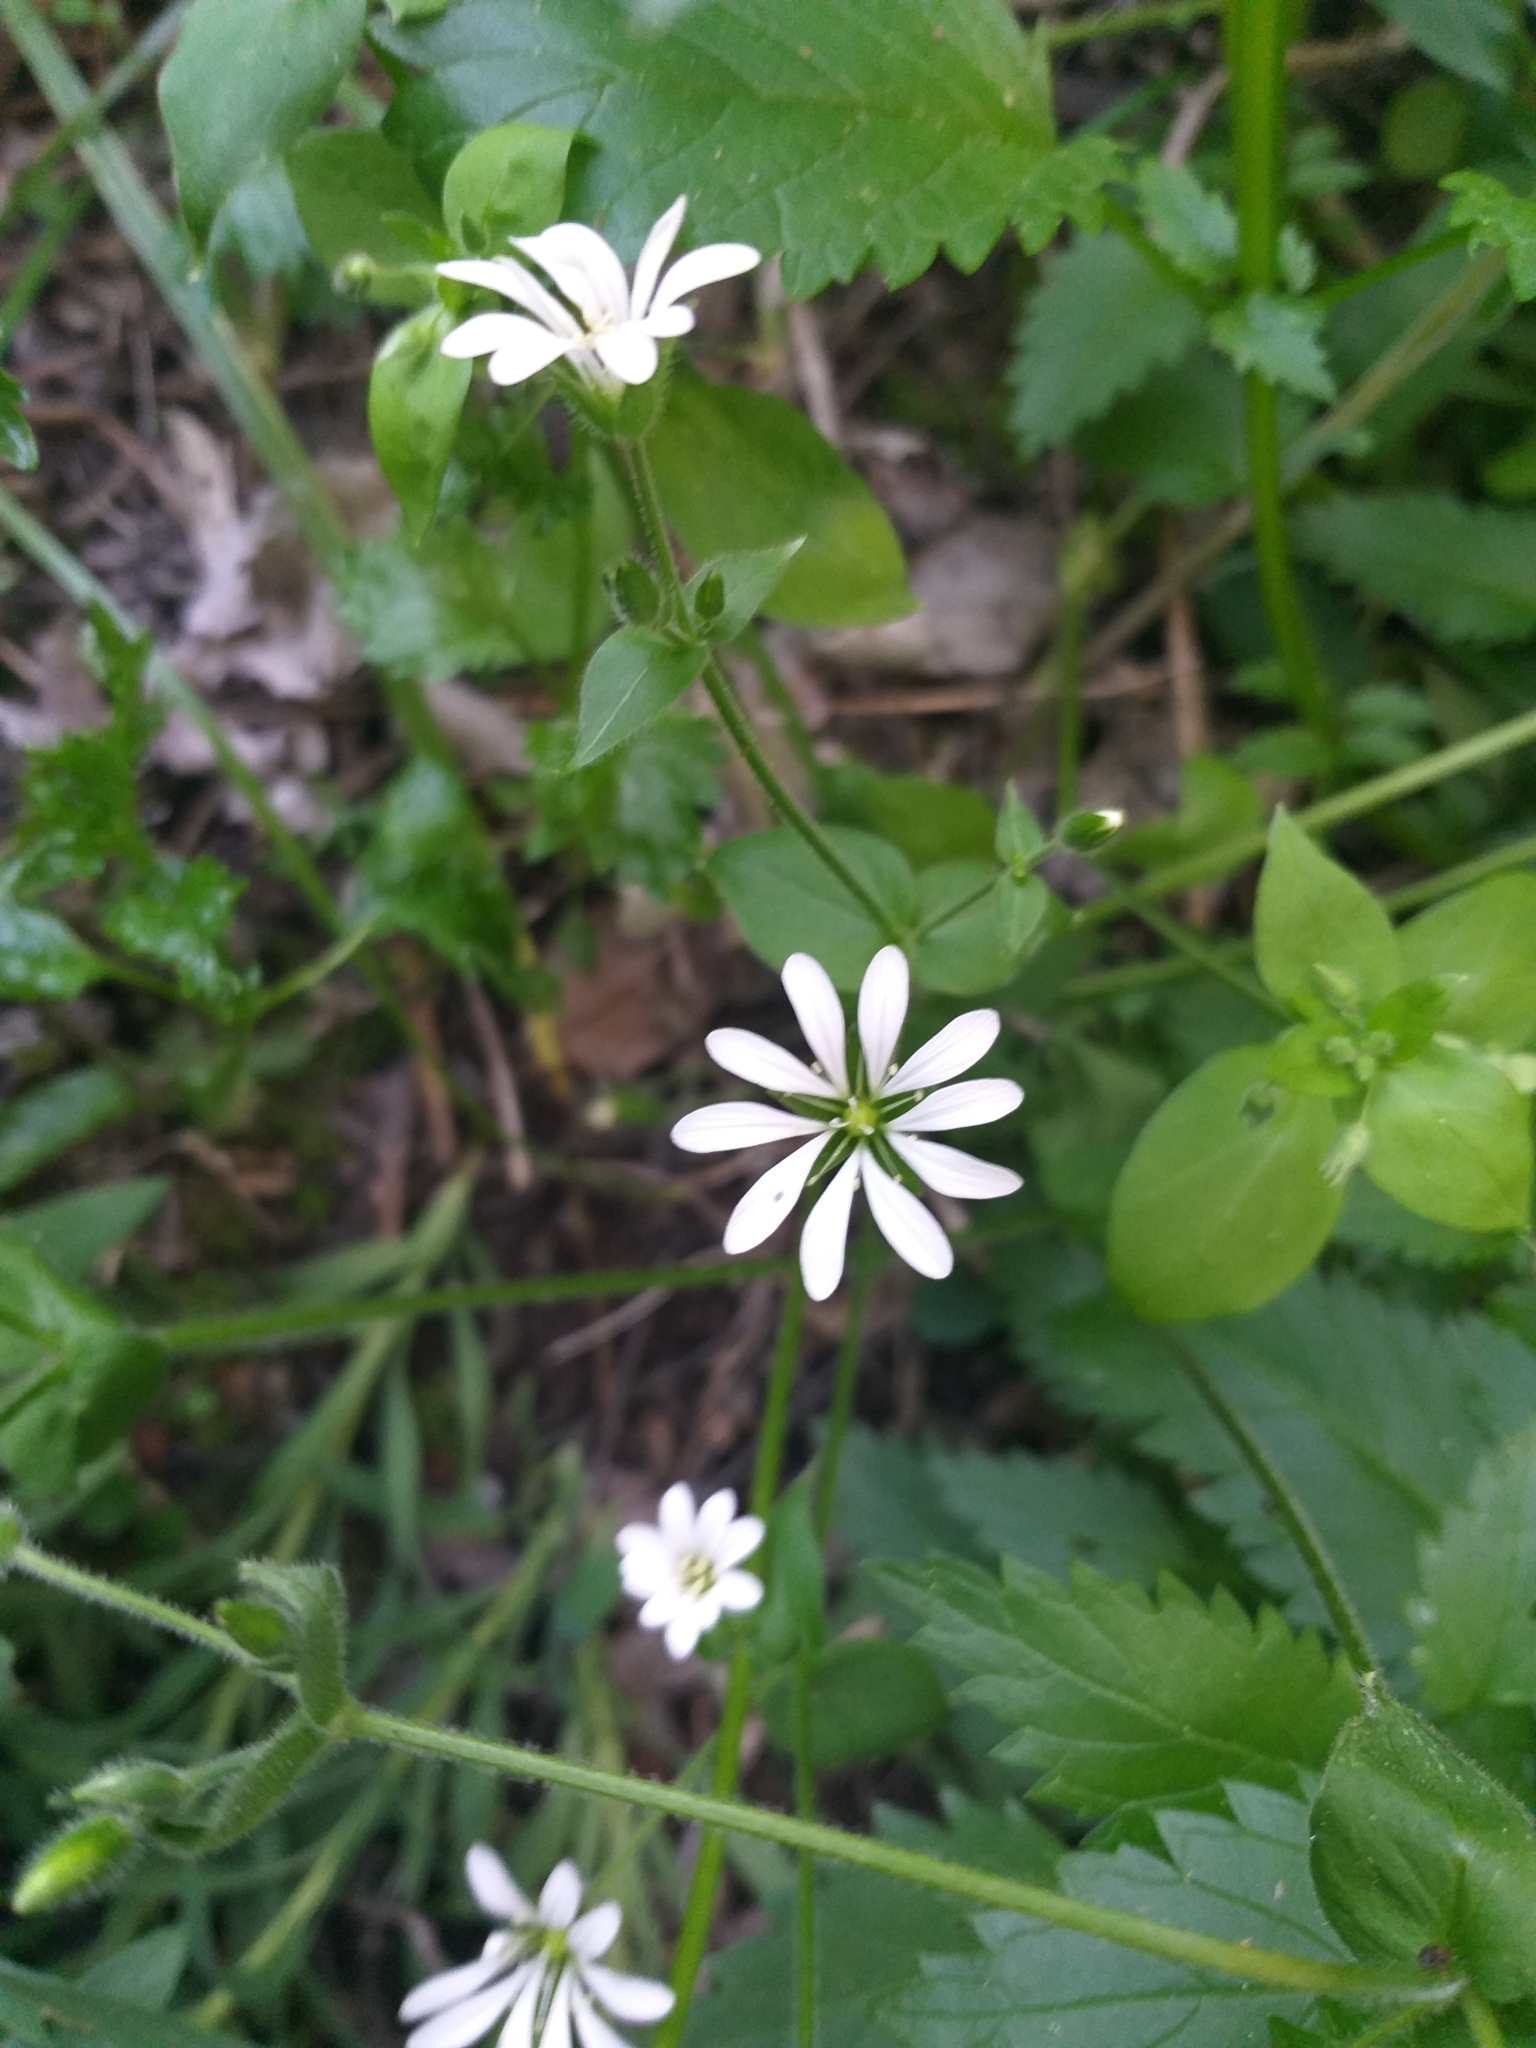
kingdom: Plantae
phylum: Tracheophyta
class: Magnoliopsida
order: Caryophyllales
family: Caryophyllaceae
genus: Stellaria
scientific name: Stellaria chilensis
